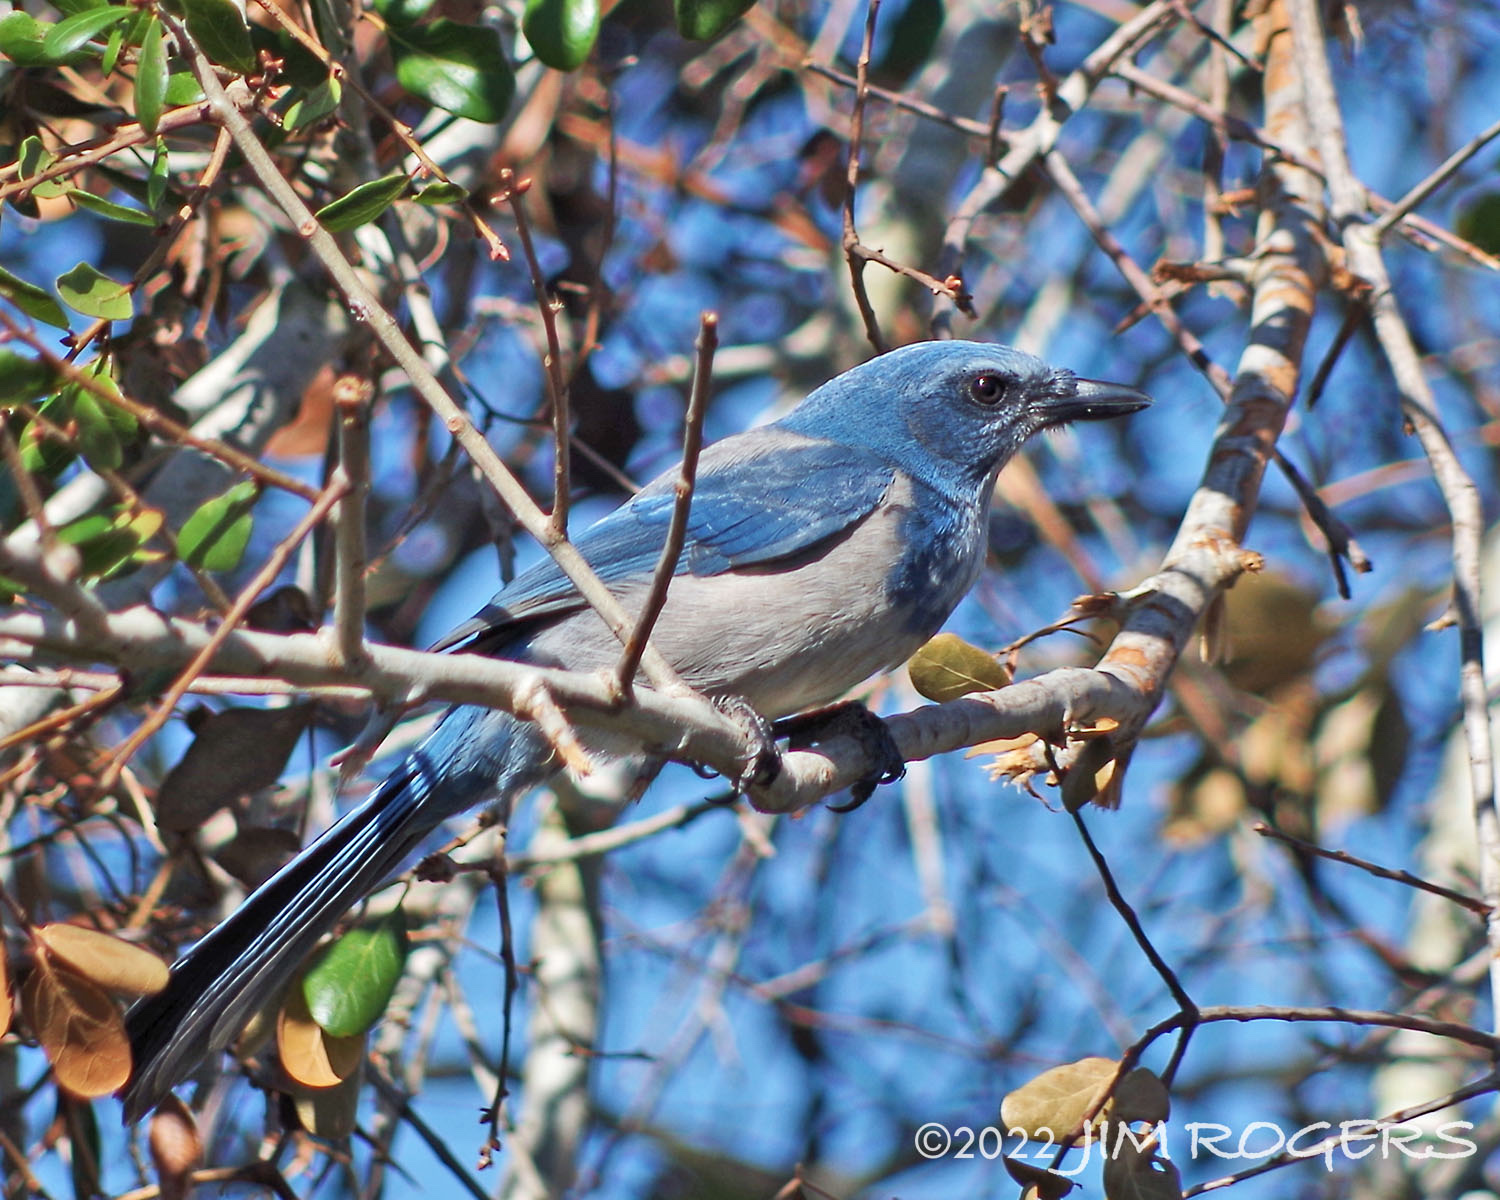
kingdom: Animalia
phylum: Chordata
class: Aves
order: Passeriformes
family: Corvidae
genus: Aphelocoma
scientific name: Aphelocoma coerulescens
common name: Florida scrub jay
